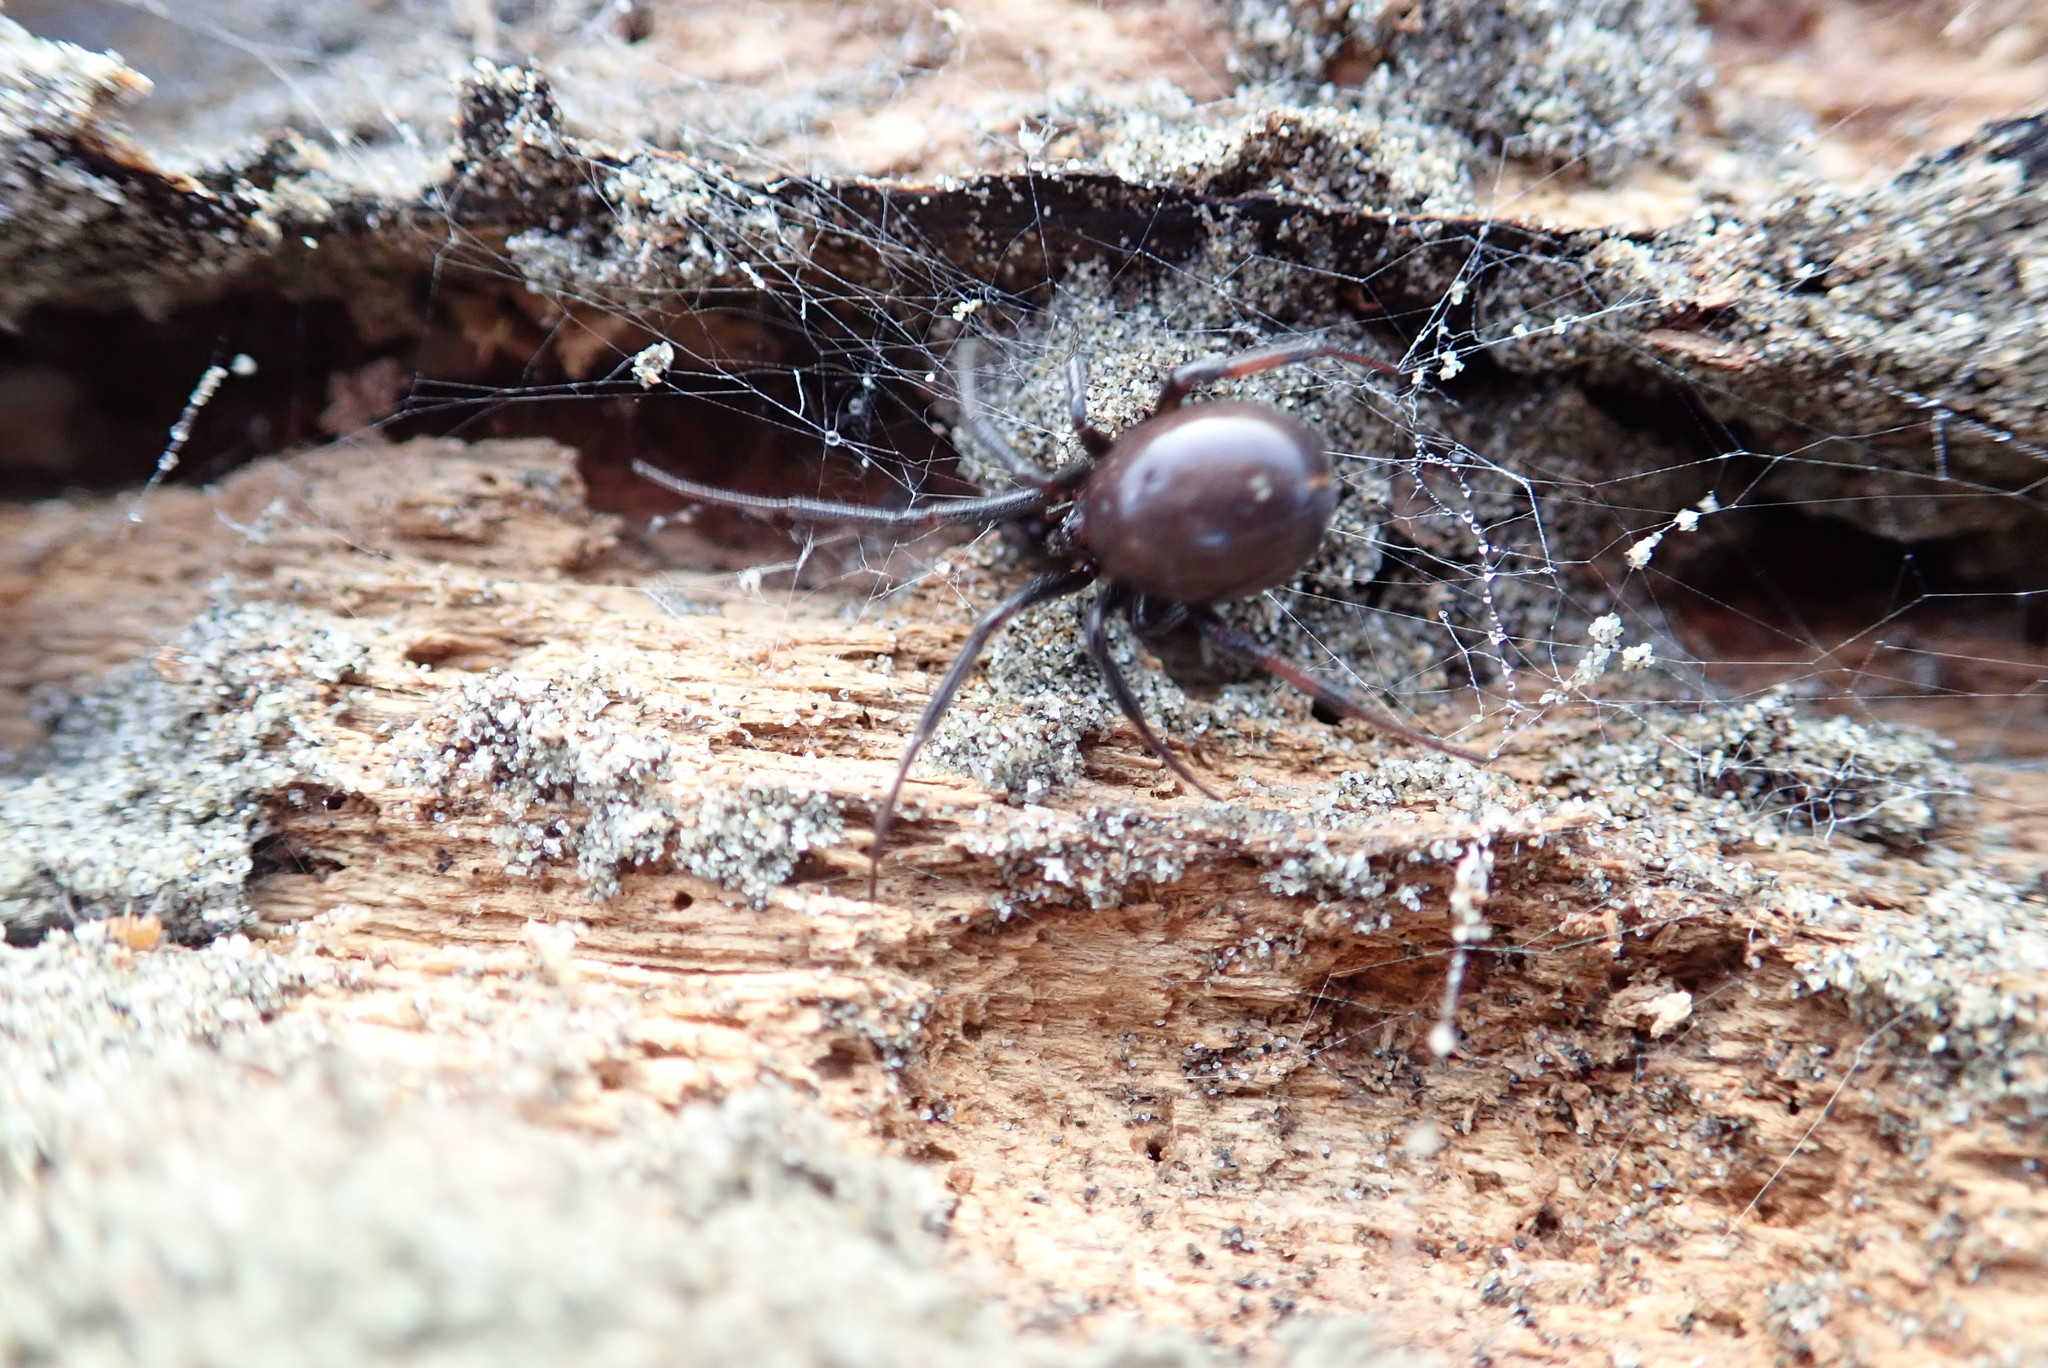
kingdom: Animalia
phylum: Arthropoda
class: Arachnida
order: Araneae
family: Theridiidae
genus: Steatoda
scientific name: Steatoda capensis
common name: Cobweb weaver
